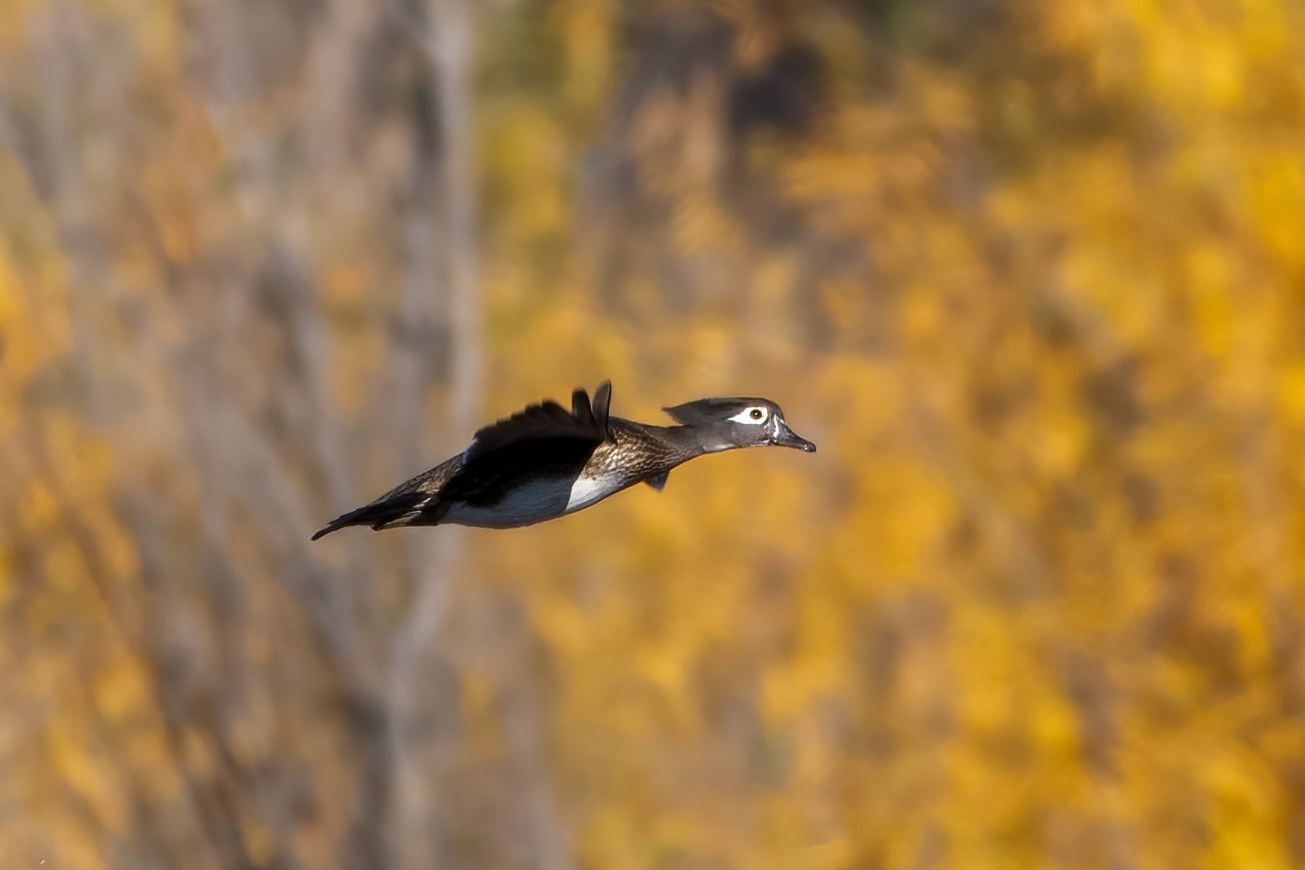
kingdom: Animalia
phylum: Chordata
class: Aves
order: Anseriformes
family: Anatidae
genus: Aix
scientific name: Aix sponsa
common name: Wood duck
